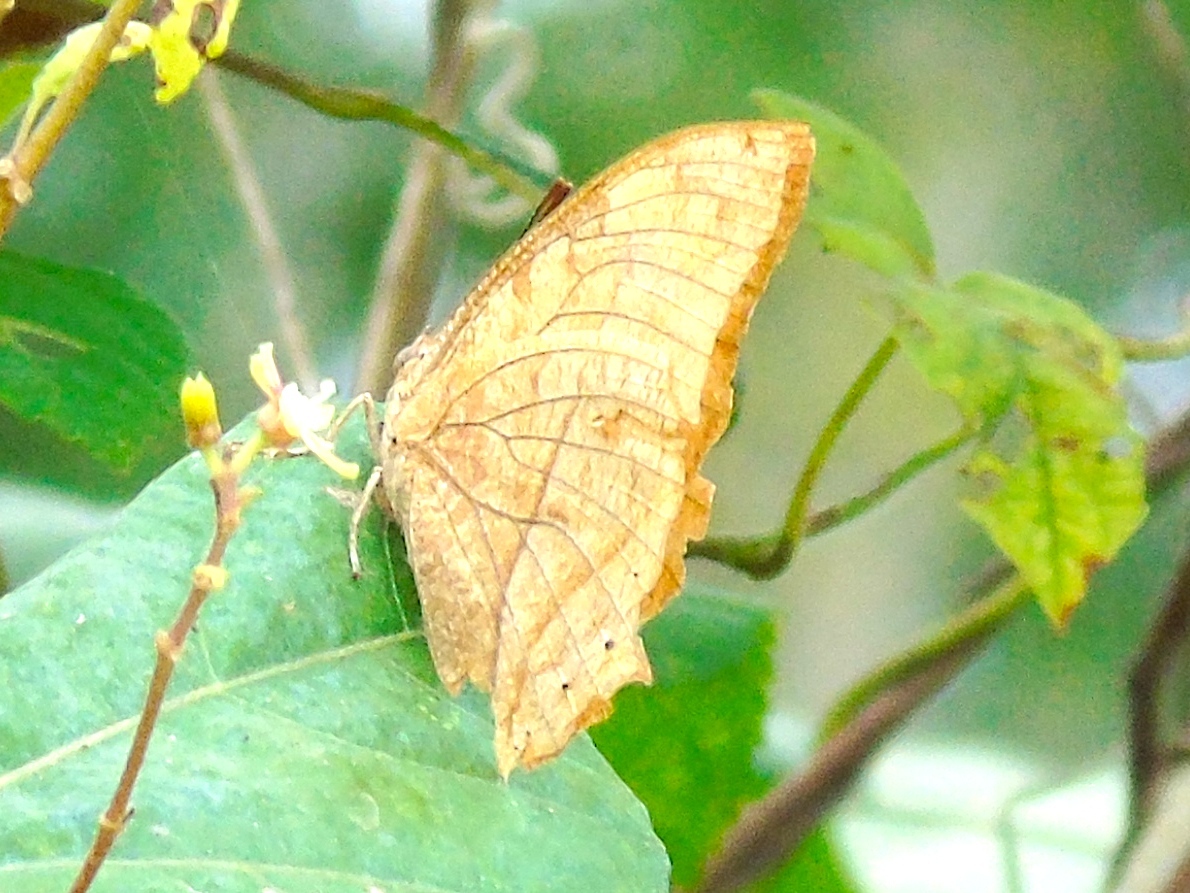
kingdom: Animalia
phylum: Arthropoda
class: Insecta
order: Lepidoptera
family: Nymphalidae
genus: Fountainea
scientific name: Fountainea
